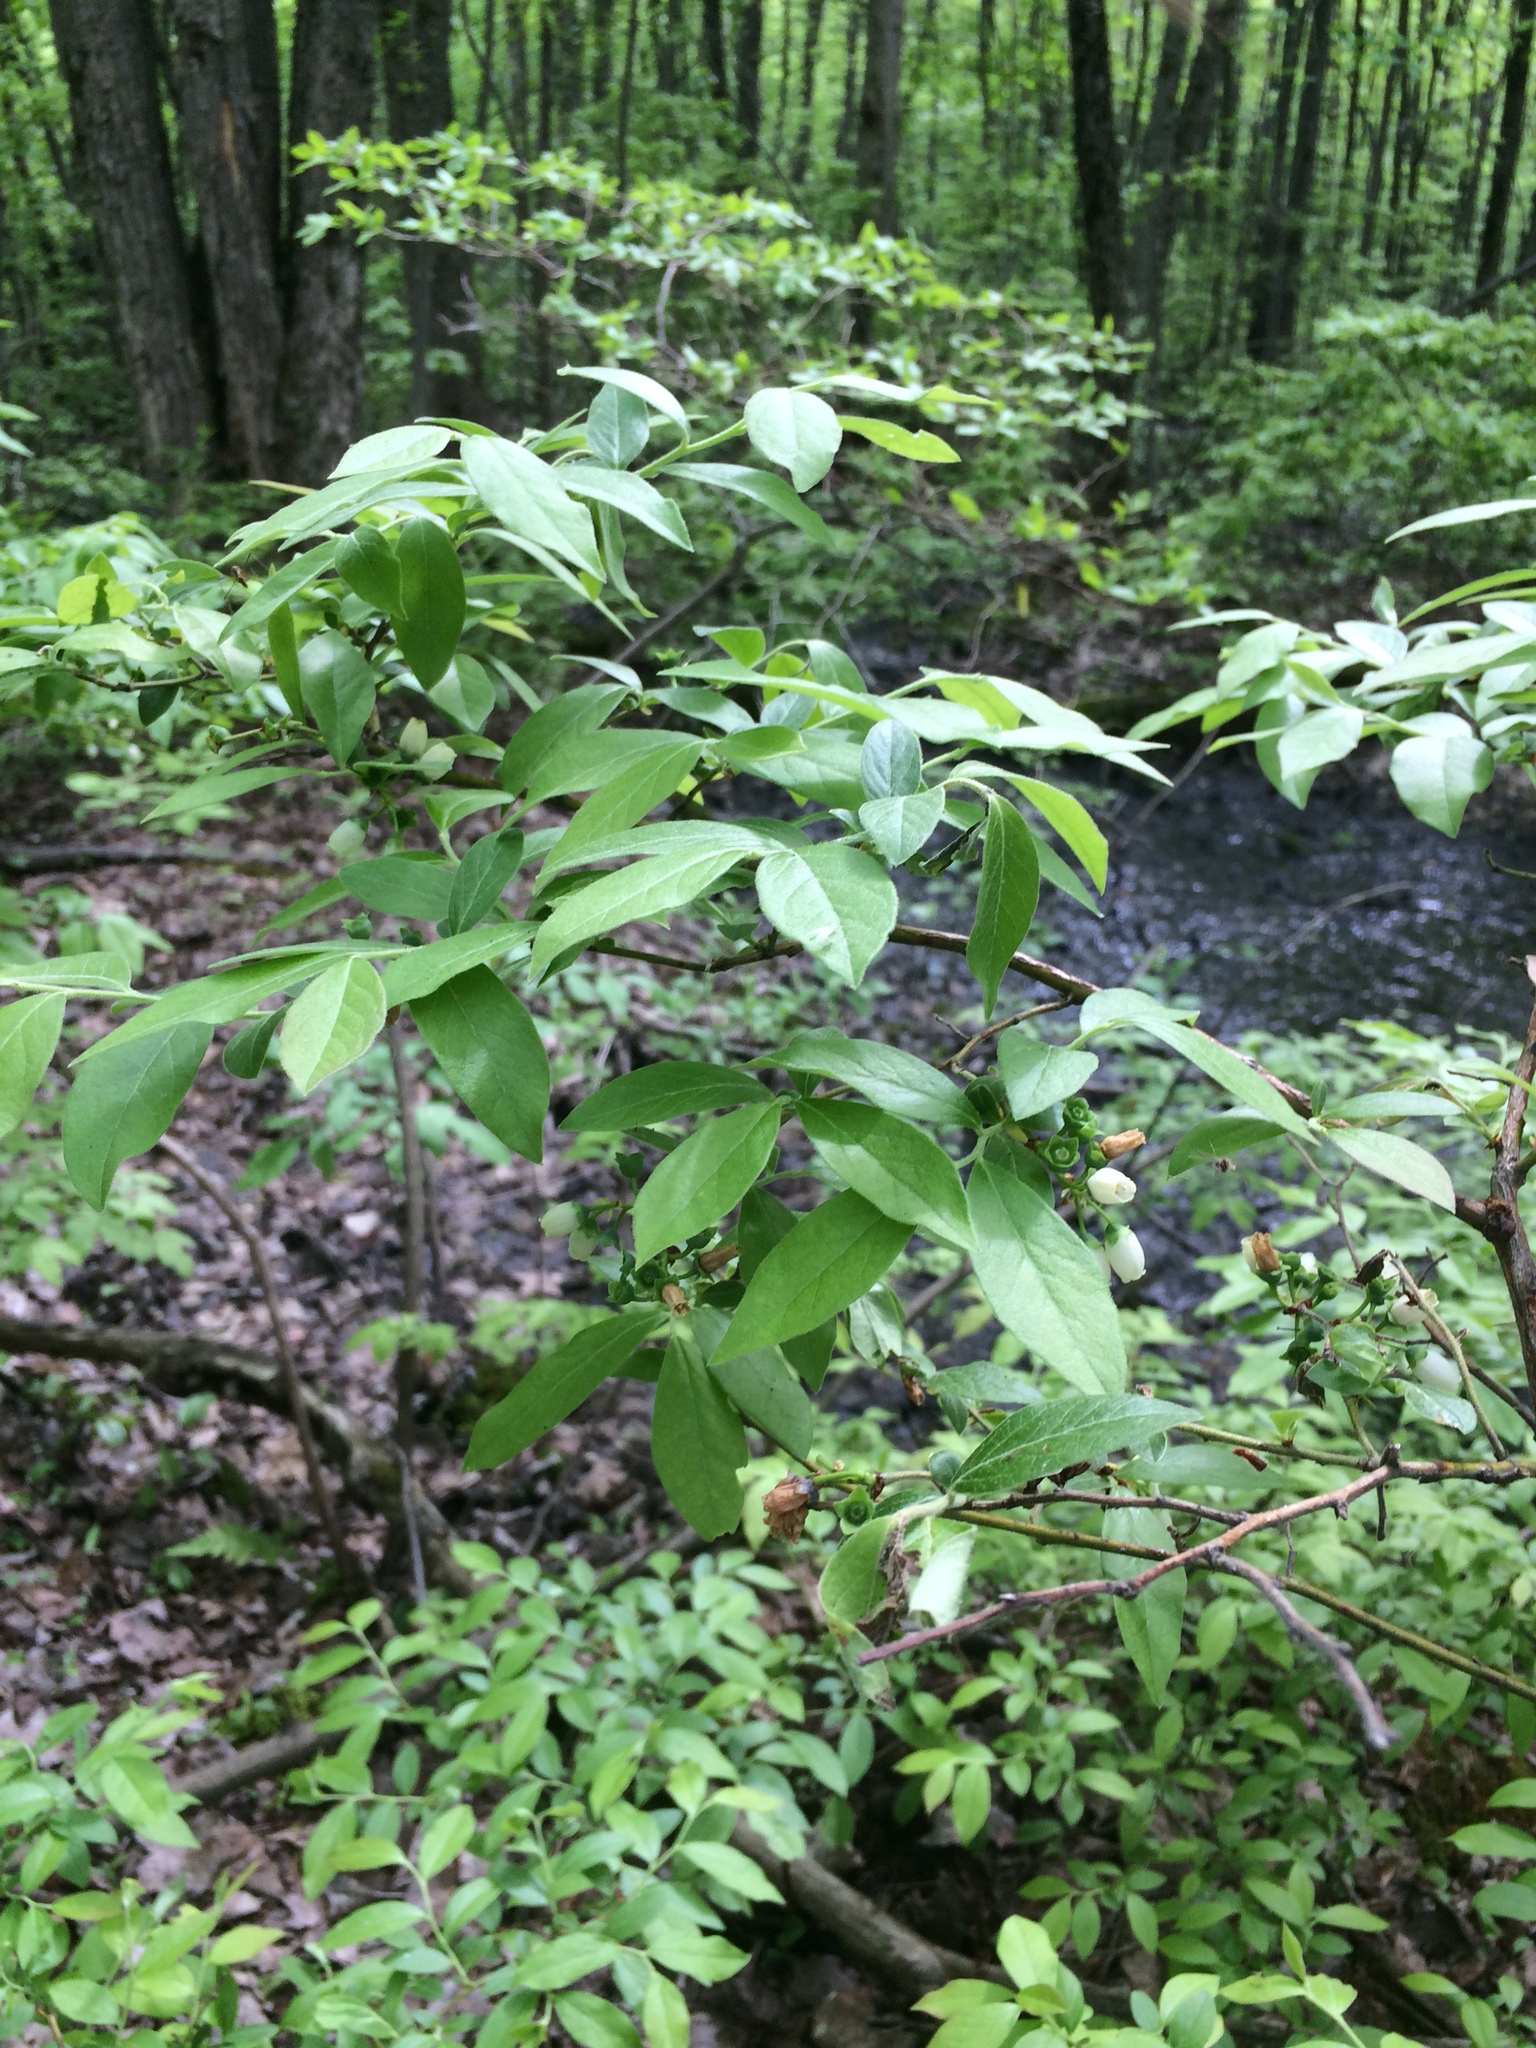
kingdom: Plantae
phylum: Tracheophyta
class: Magnoliopsida
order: Ericales
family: Ericaceae
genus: Vaccinium
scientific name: Vaccinium corymbosum
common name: Blueberry
